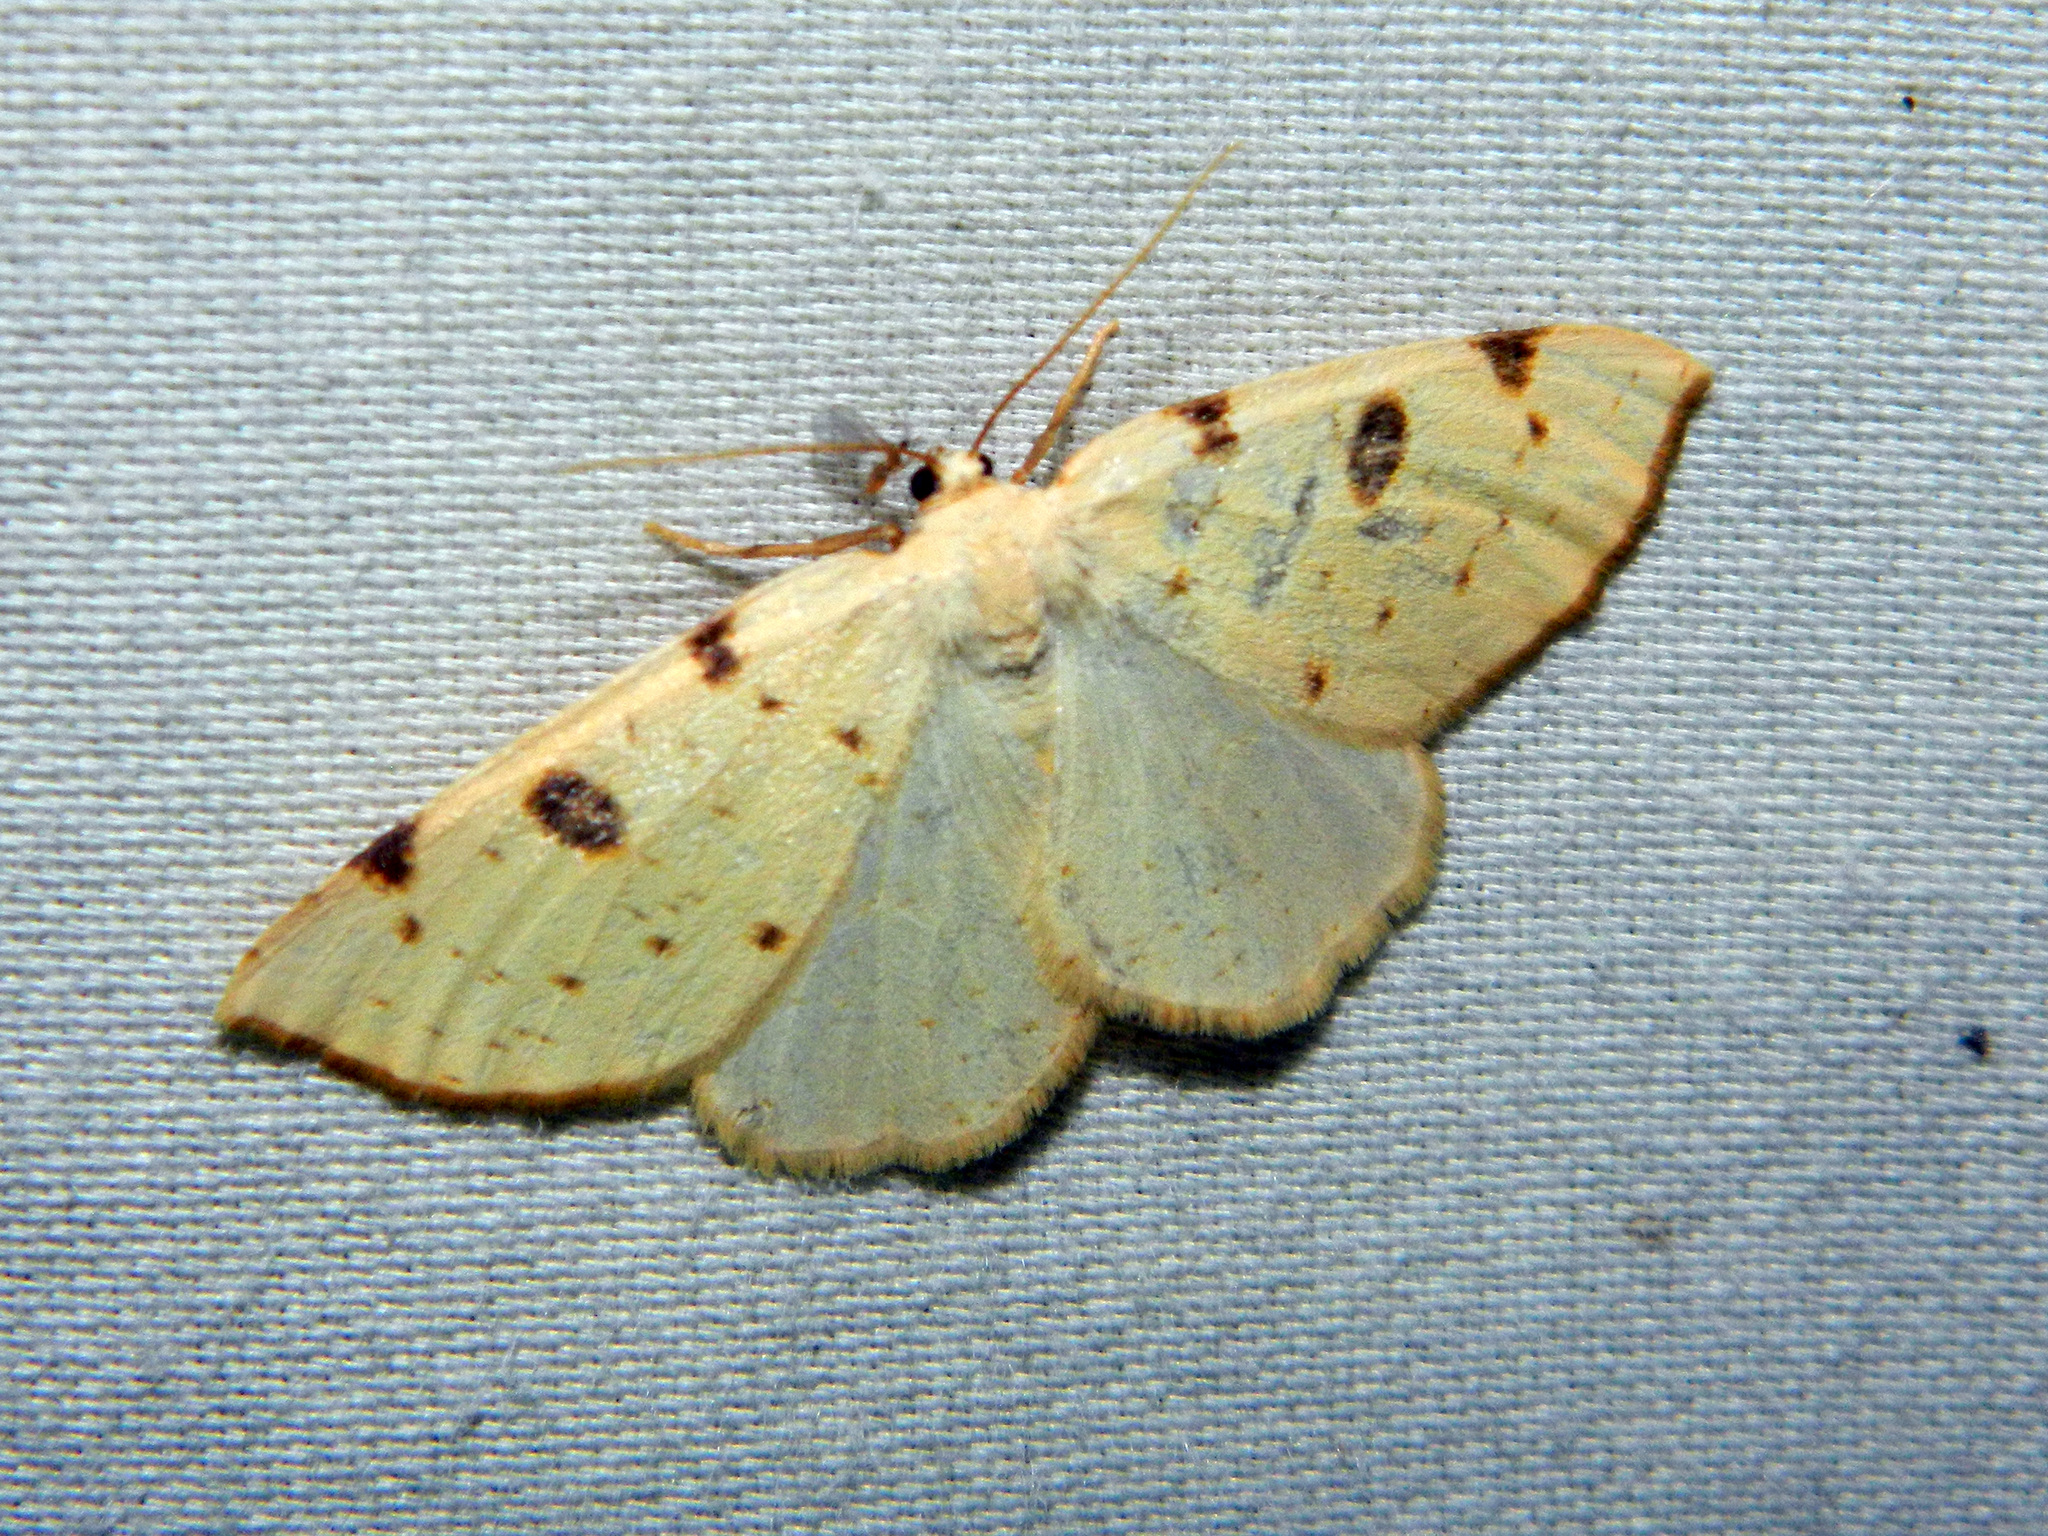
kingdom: Animalia
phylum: Arthropoda
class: Insecta
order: Lepidoptera
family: Geometridae
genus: Hesperumia
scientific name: Hesperumia sulphuraria
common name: Sulphur moth
